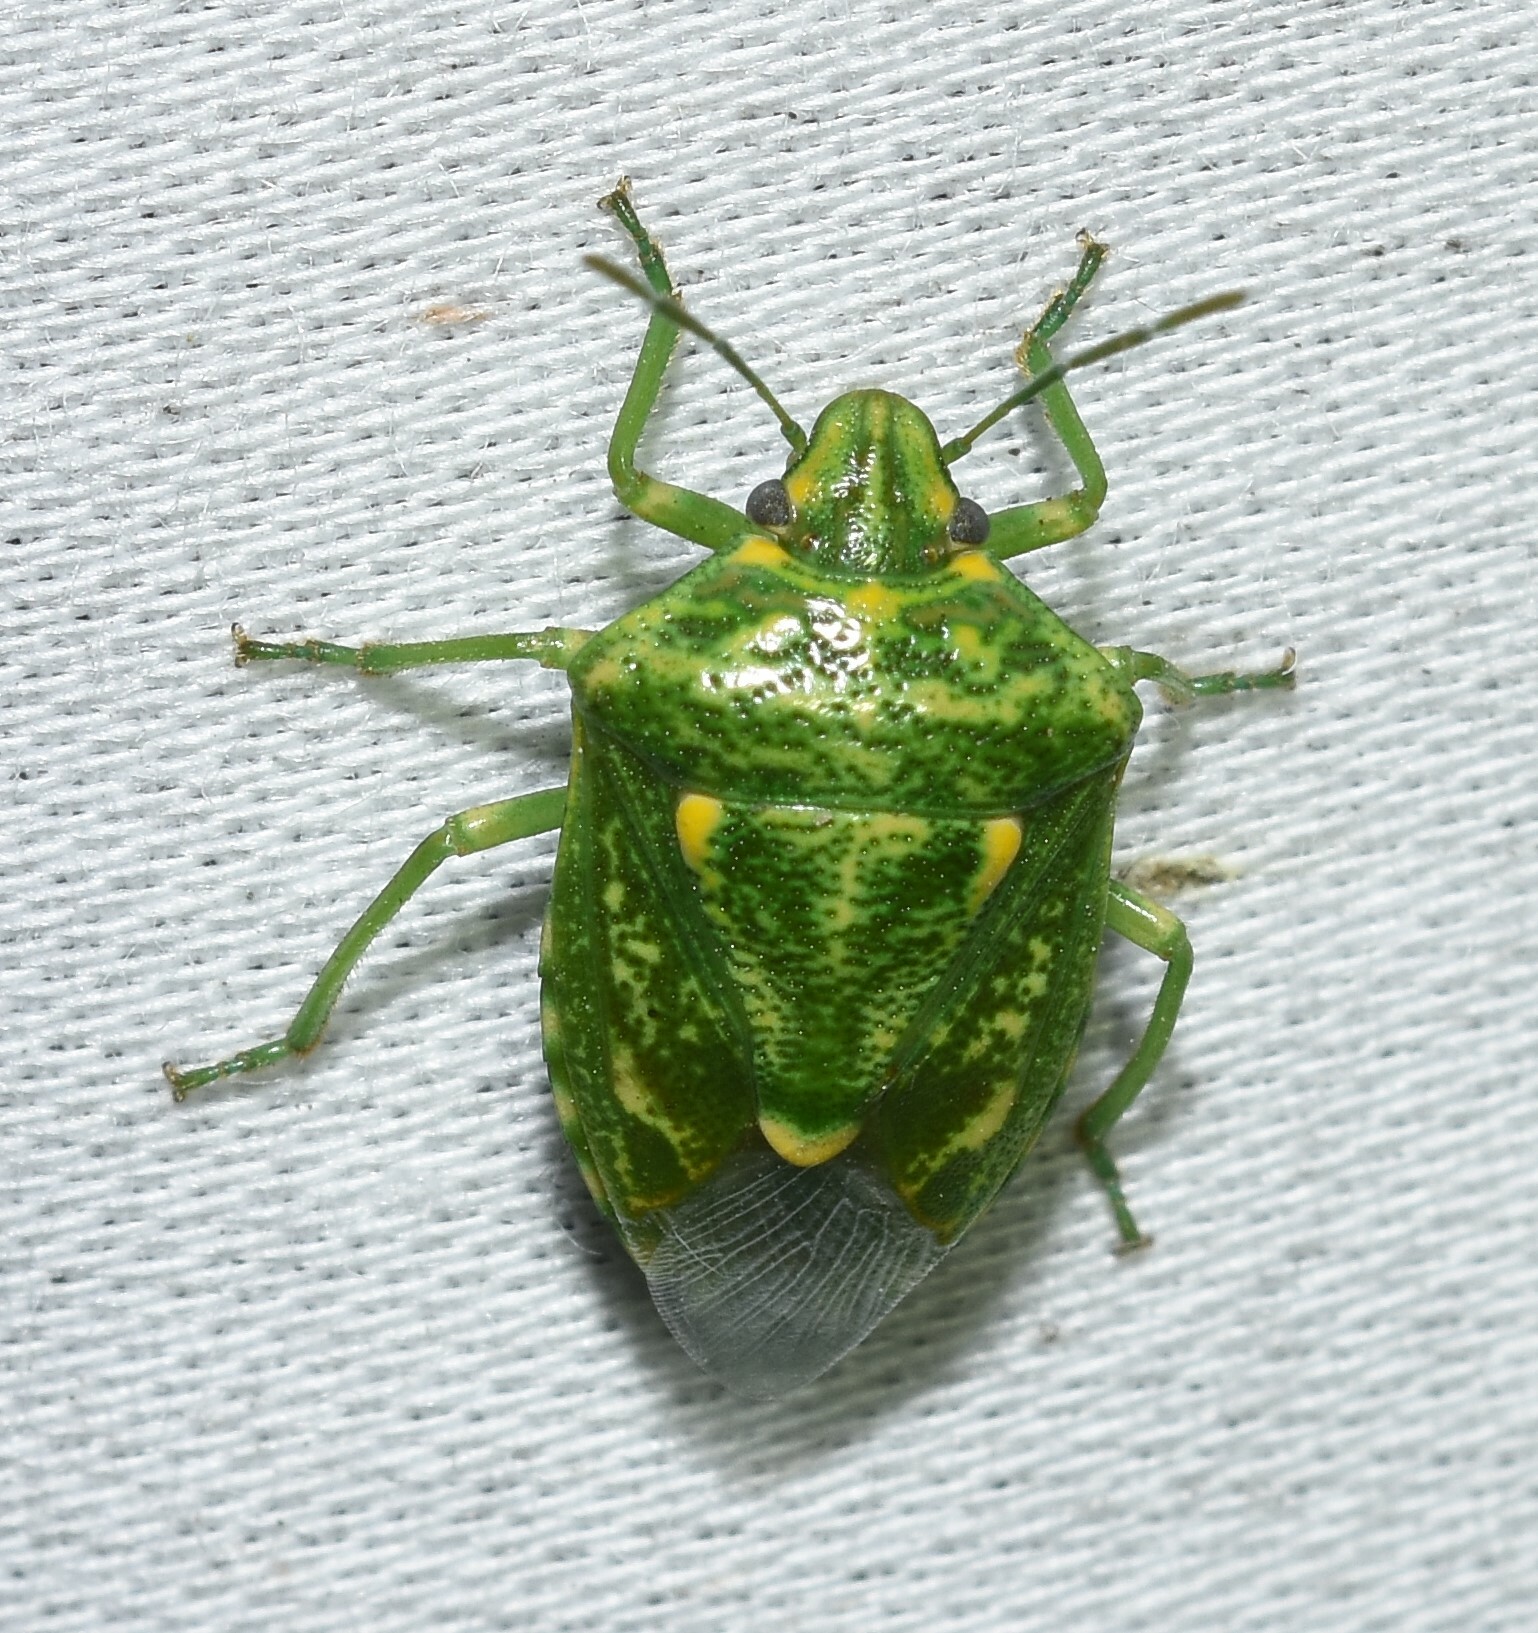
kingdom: Animalia
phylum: Arthropoda
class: Insecta
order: Hemiptera
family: Pentatomidae
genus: Banasa
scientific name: Banasa euchlora
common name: Cedar berry bug
